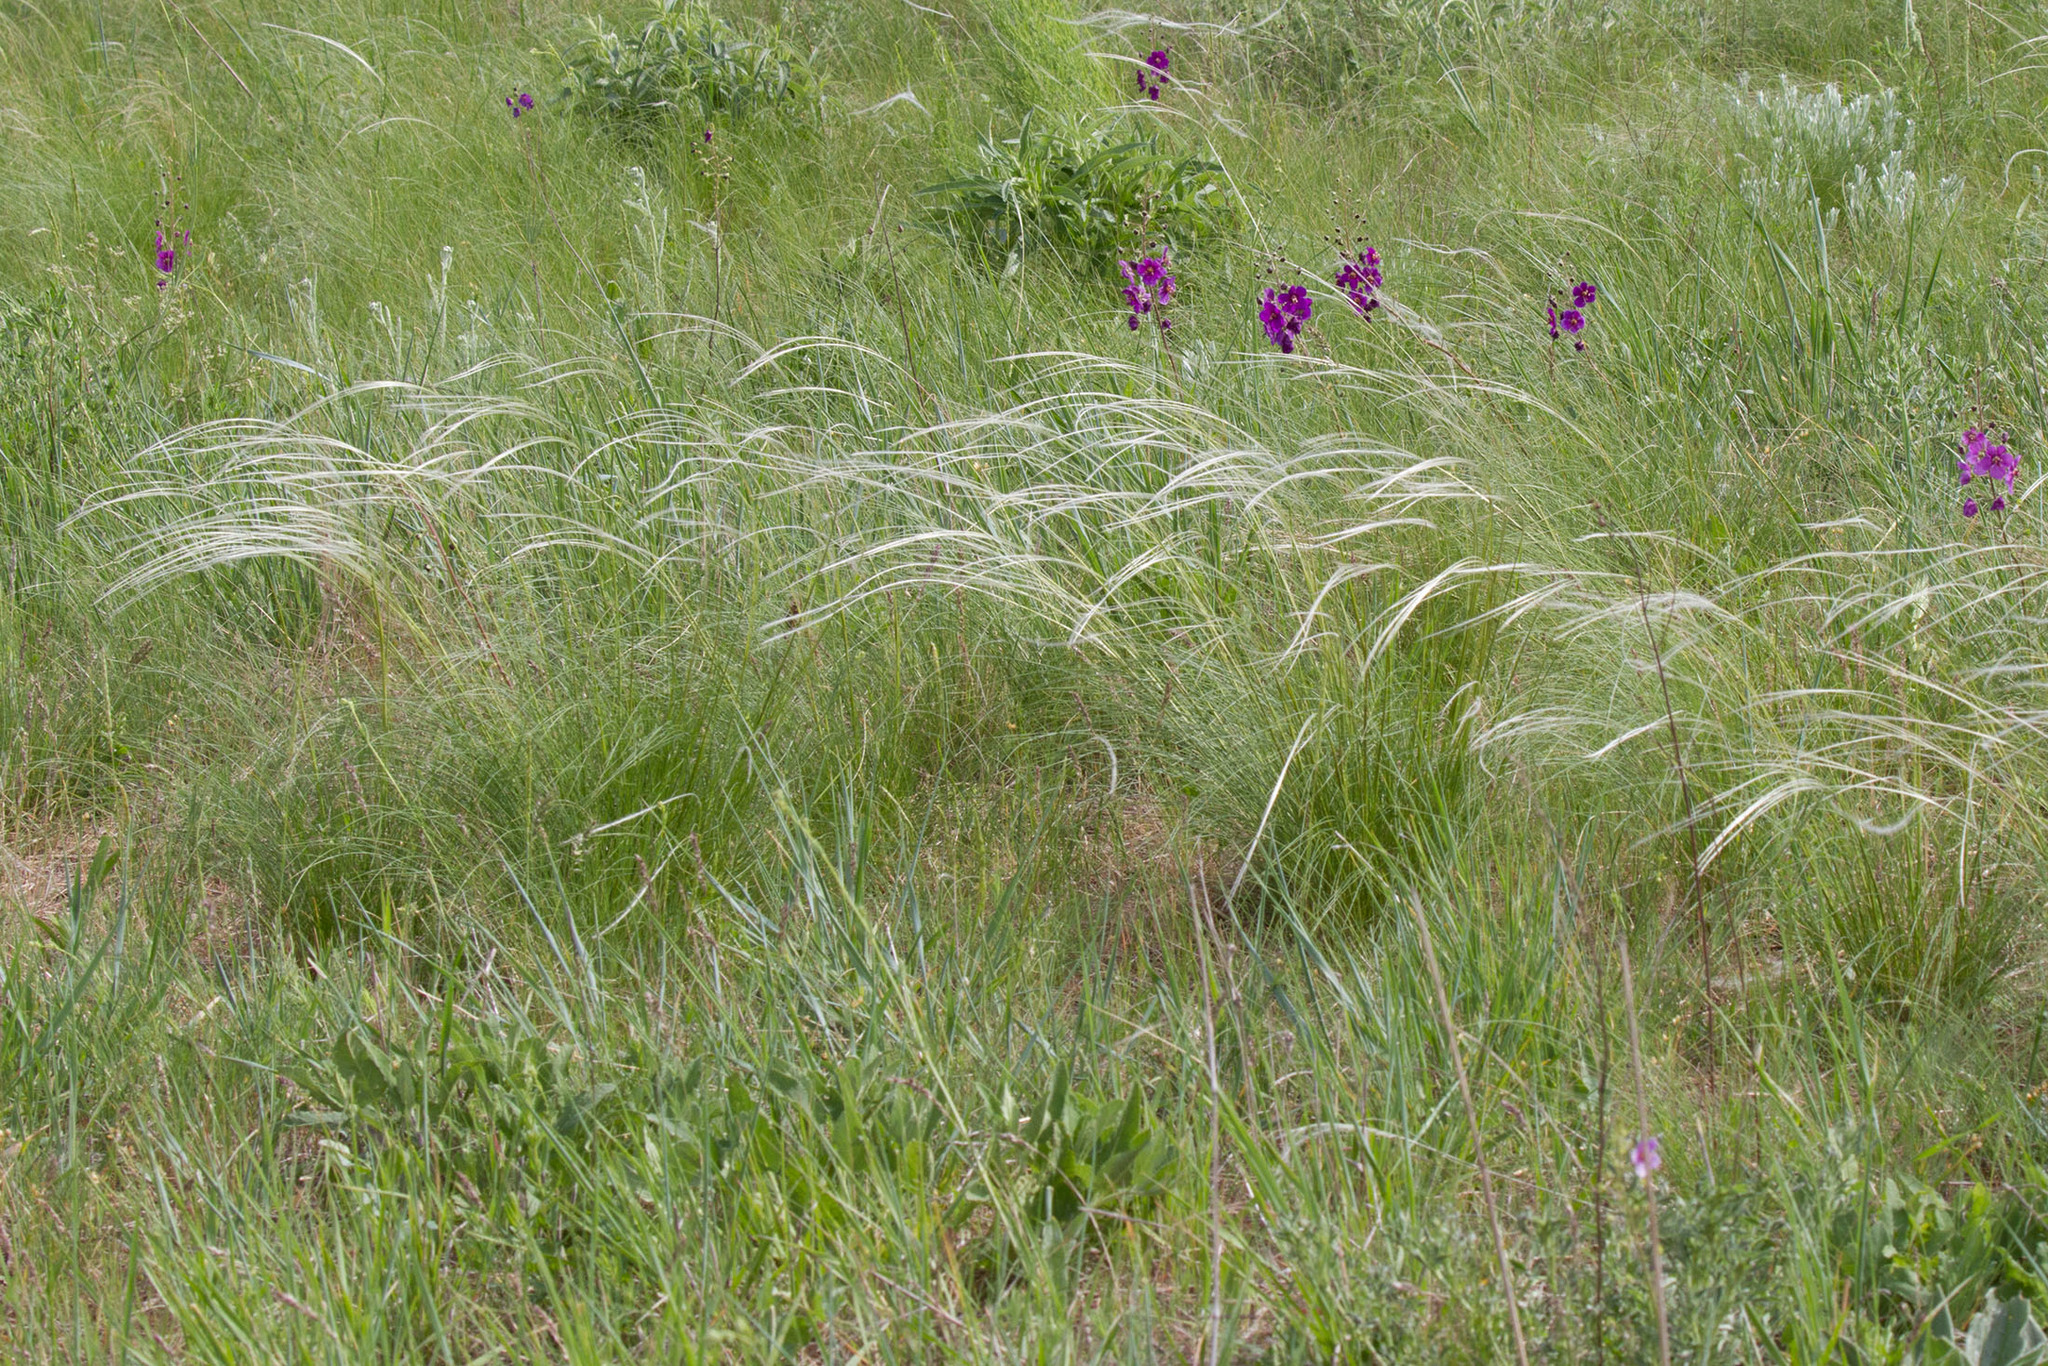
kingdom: Plantae
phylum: Tracheophyta
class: Liliopsida
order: Poales
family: Poaceae
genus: Stipa
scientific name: Stipa pennata
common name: European feather grass
